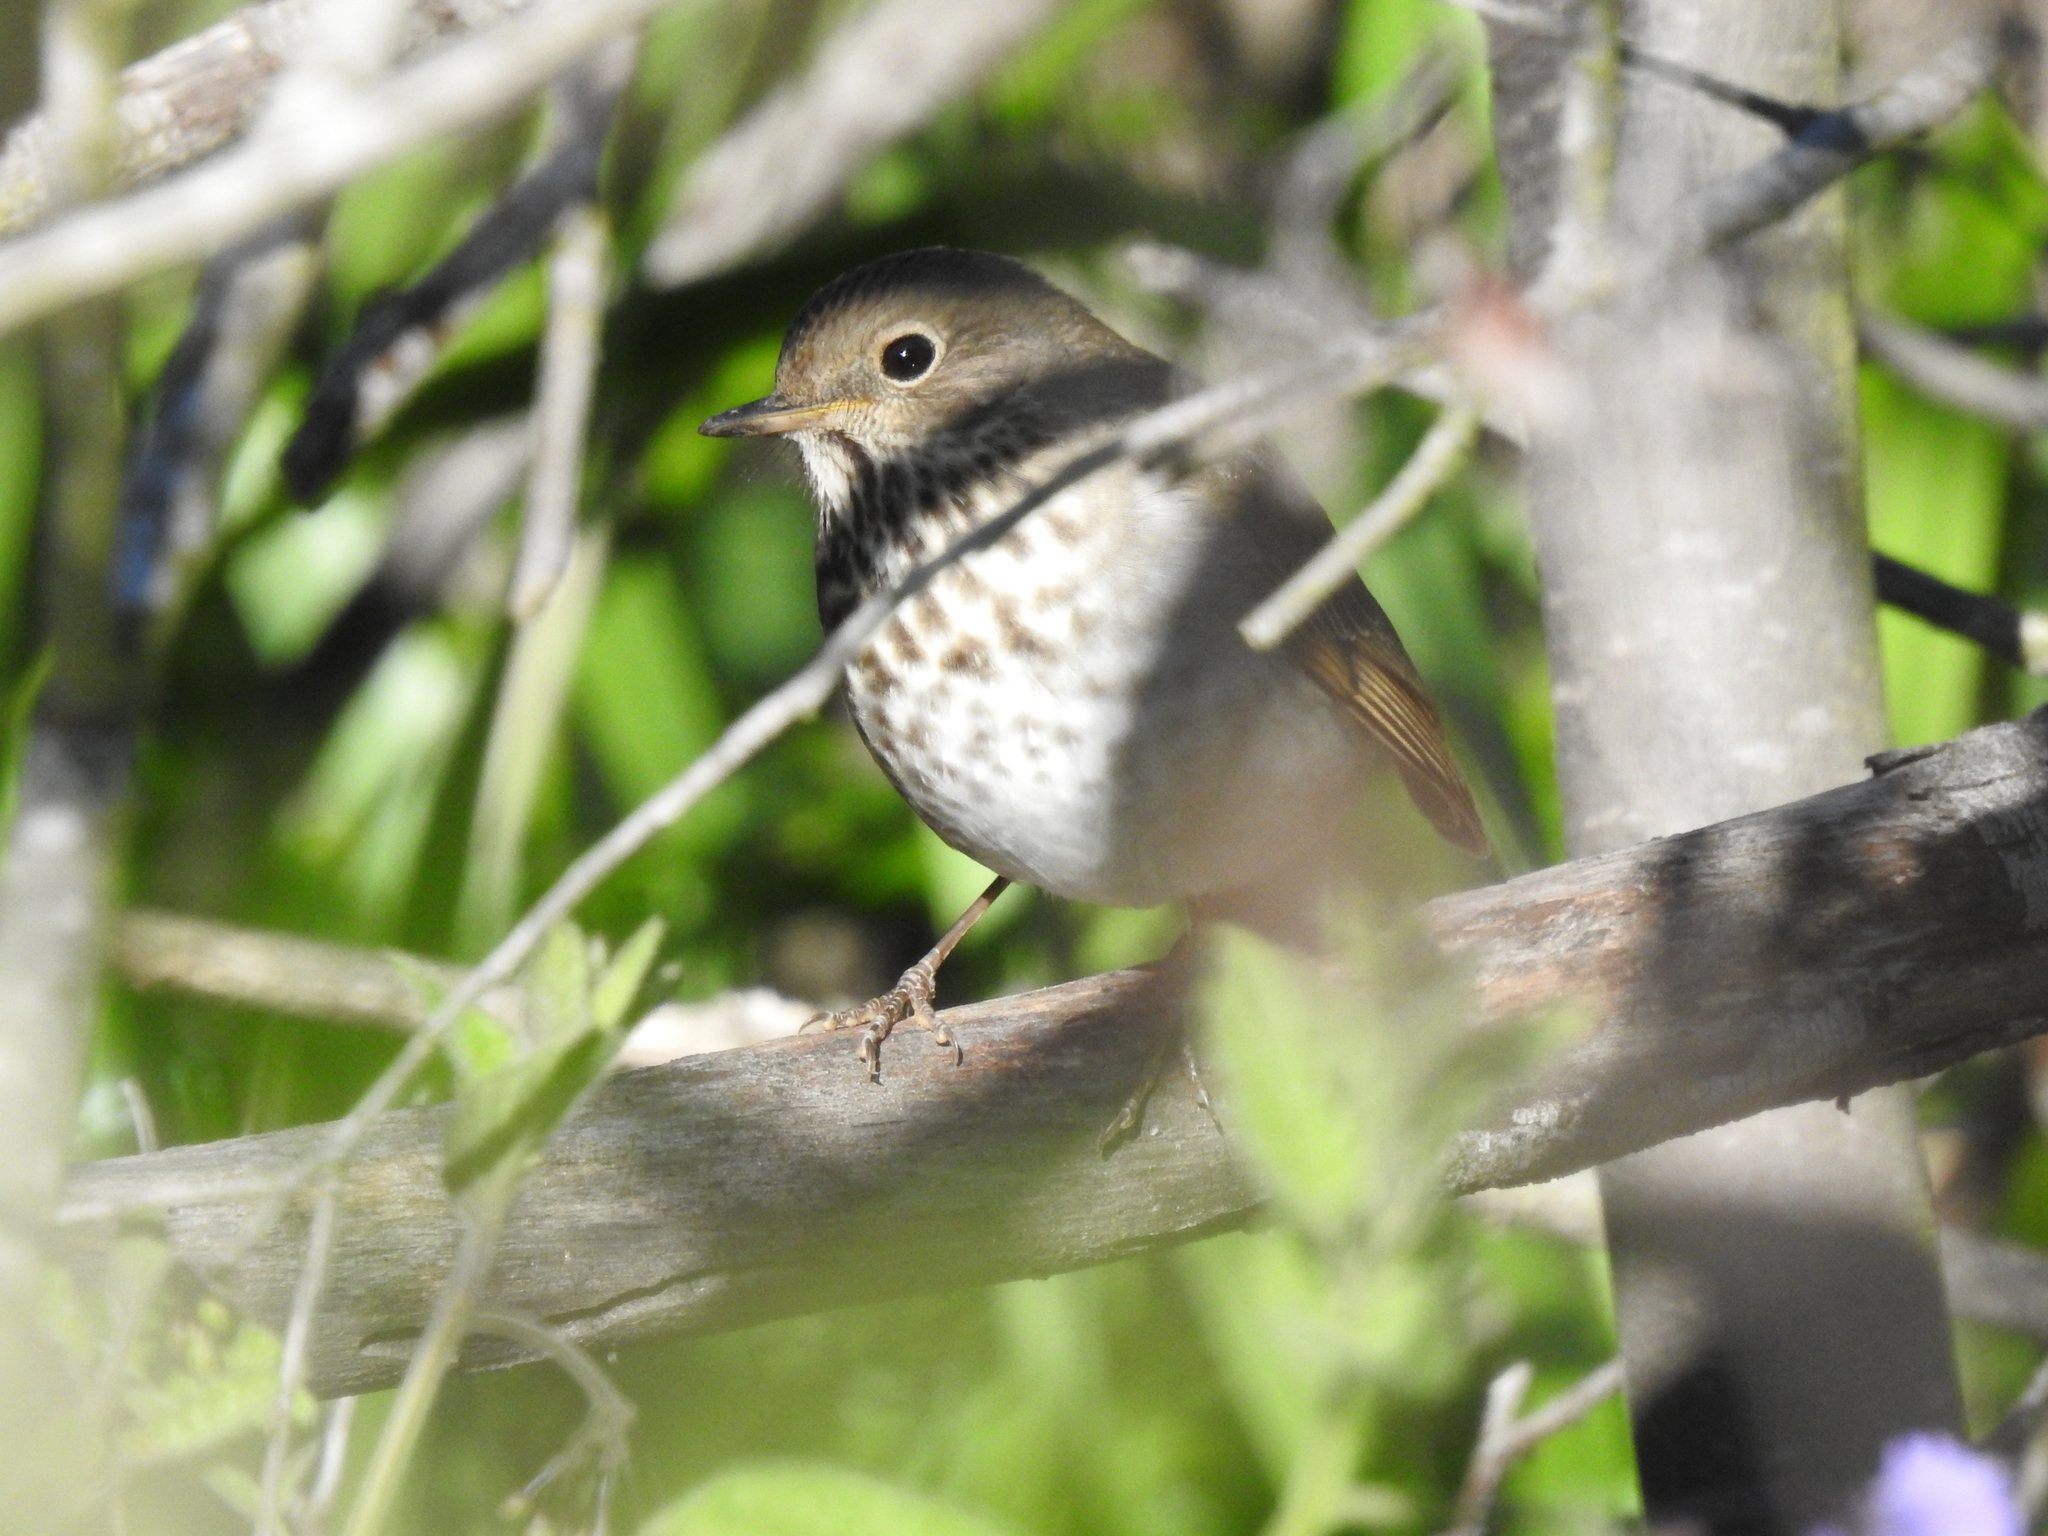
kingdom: Animalia
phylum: Chordata
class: Aves
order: Passeriformes
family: Turdidae
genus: Catharus
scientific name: Catharus guttatus
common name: Hermit thrush
